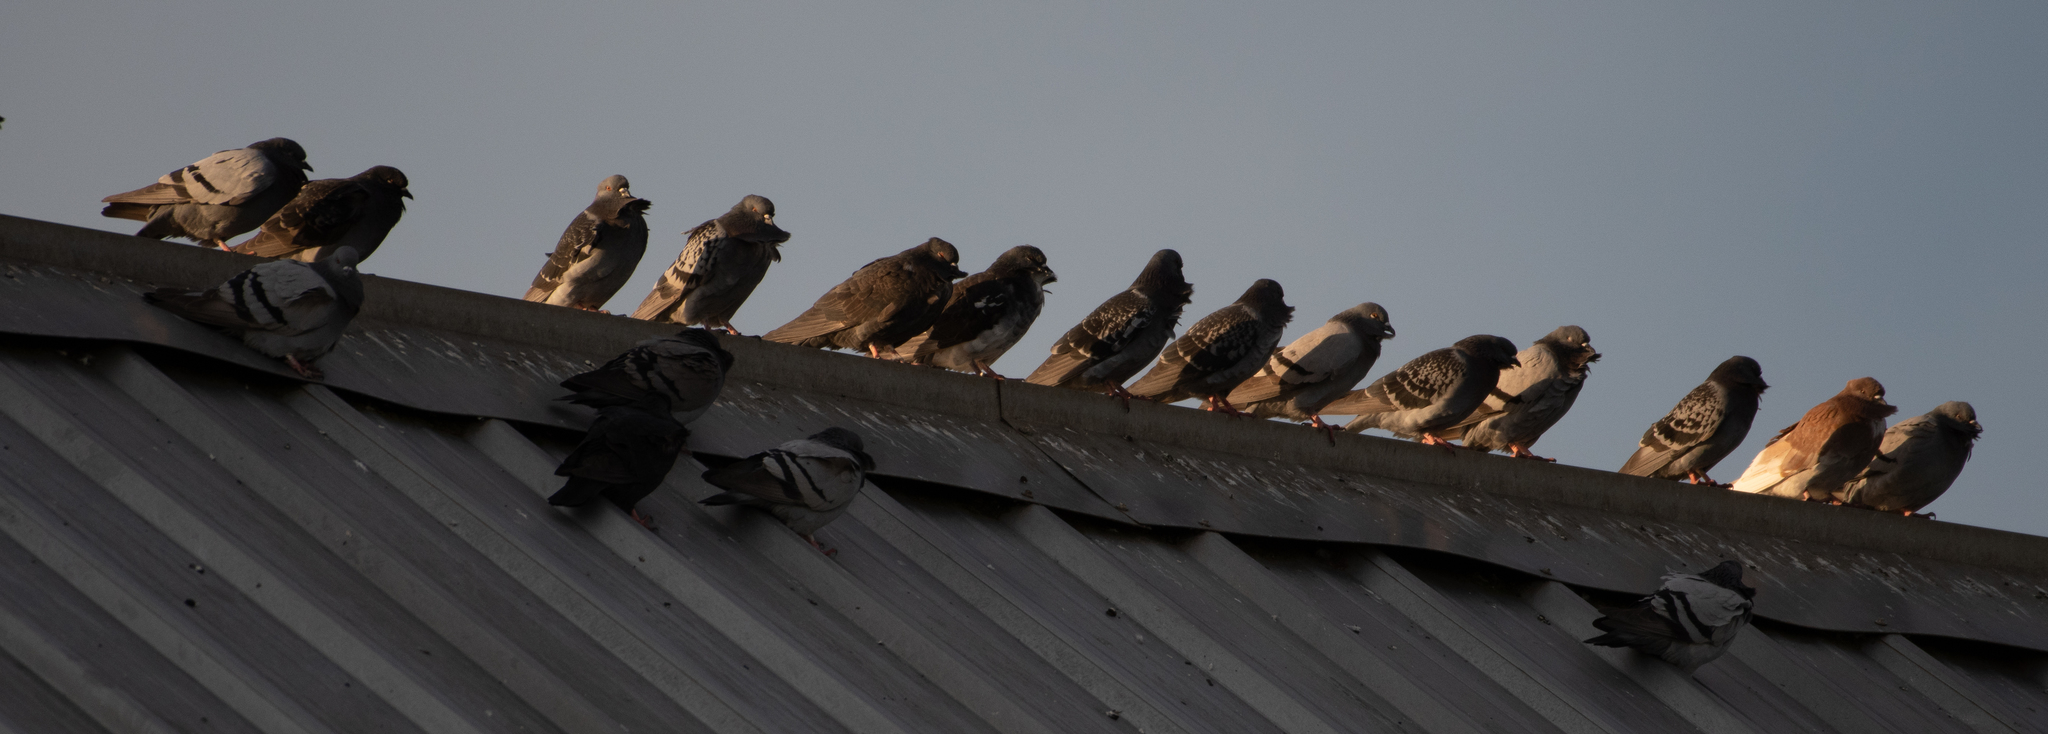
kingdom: Animalia
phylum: Chordata
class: Aves
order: Columbiformes
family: Columbidae
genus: Columba
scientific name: Columba livia
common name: Rock pigeon
